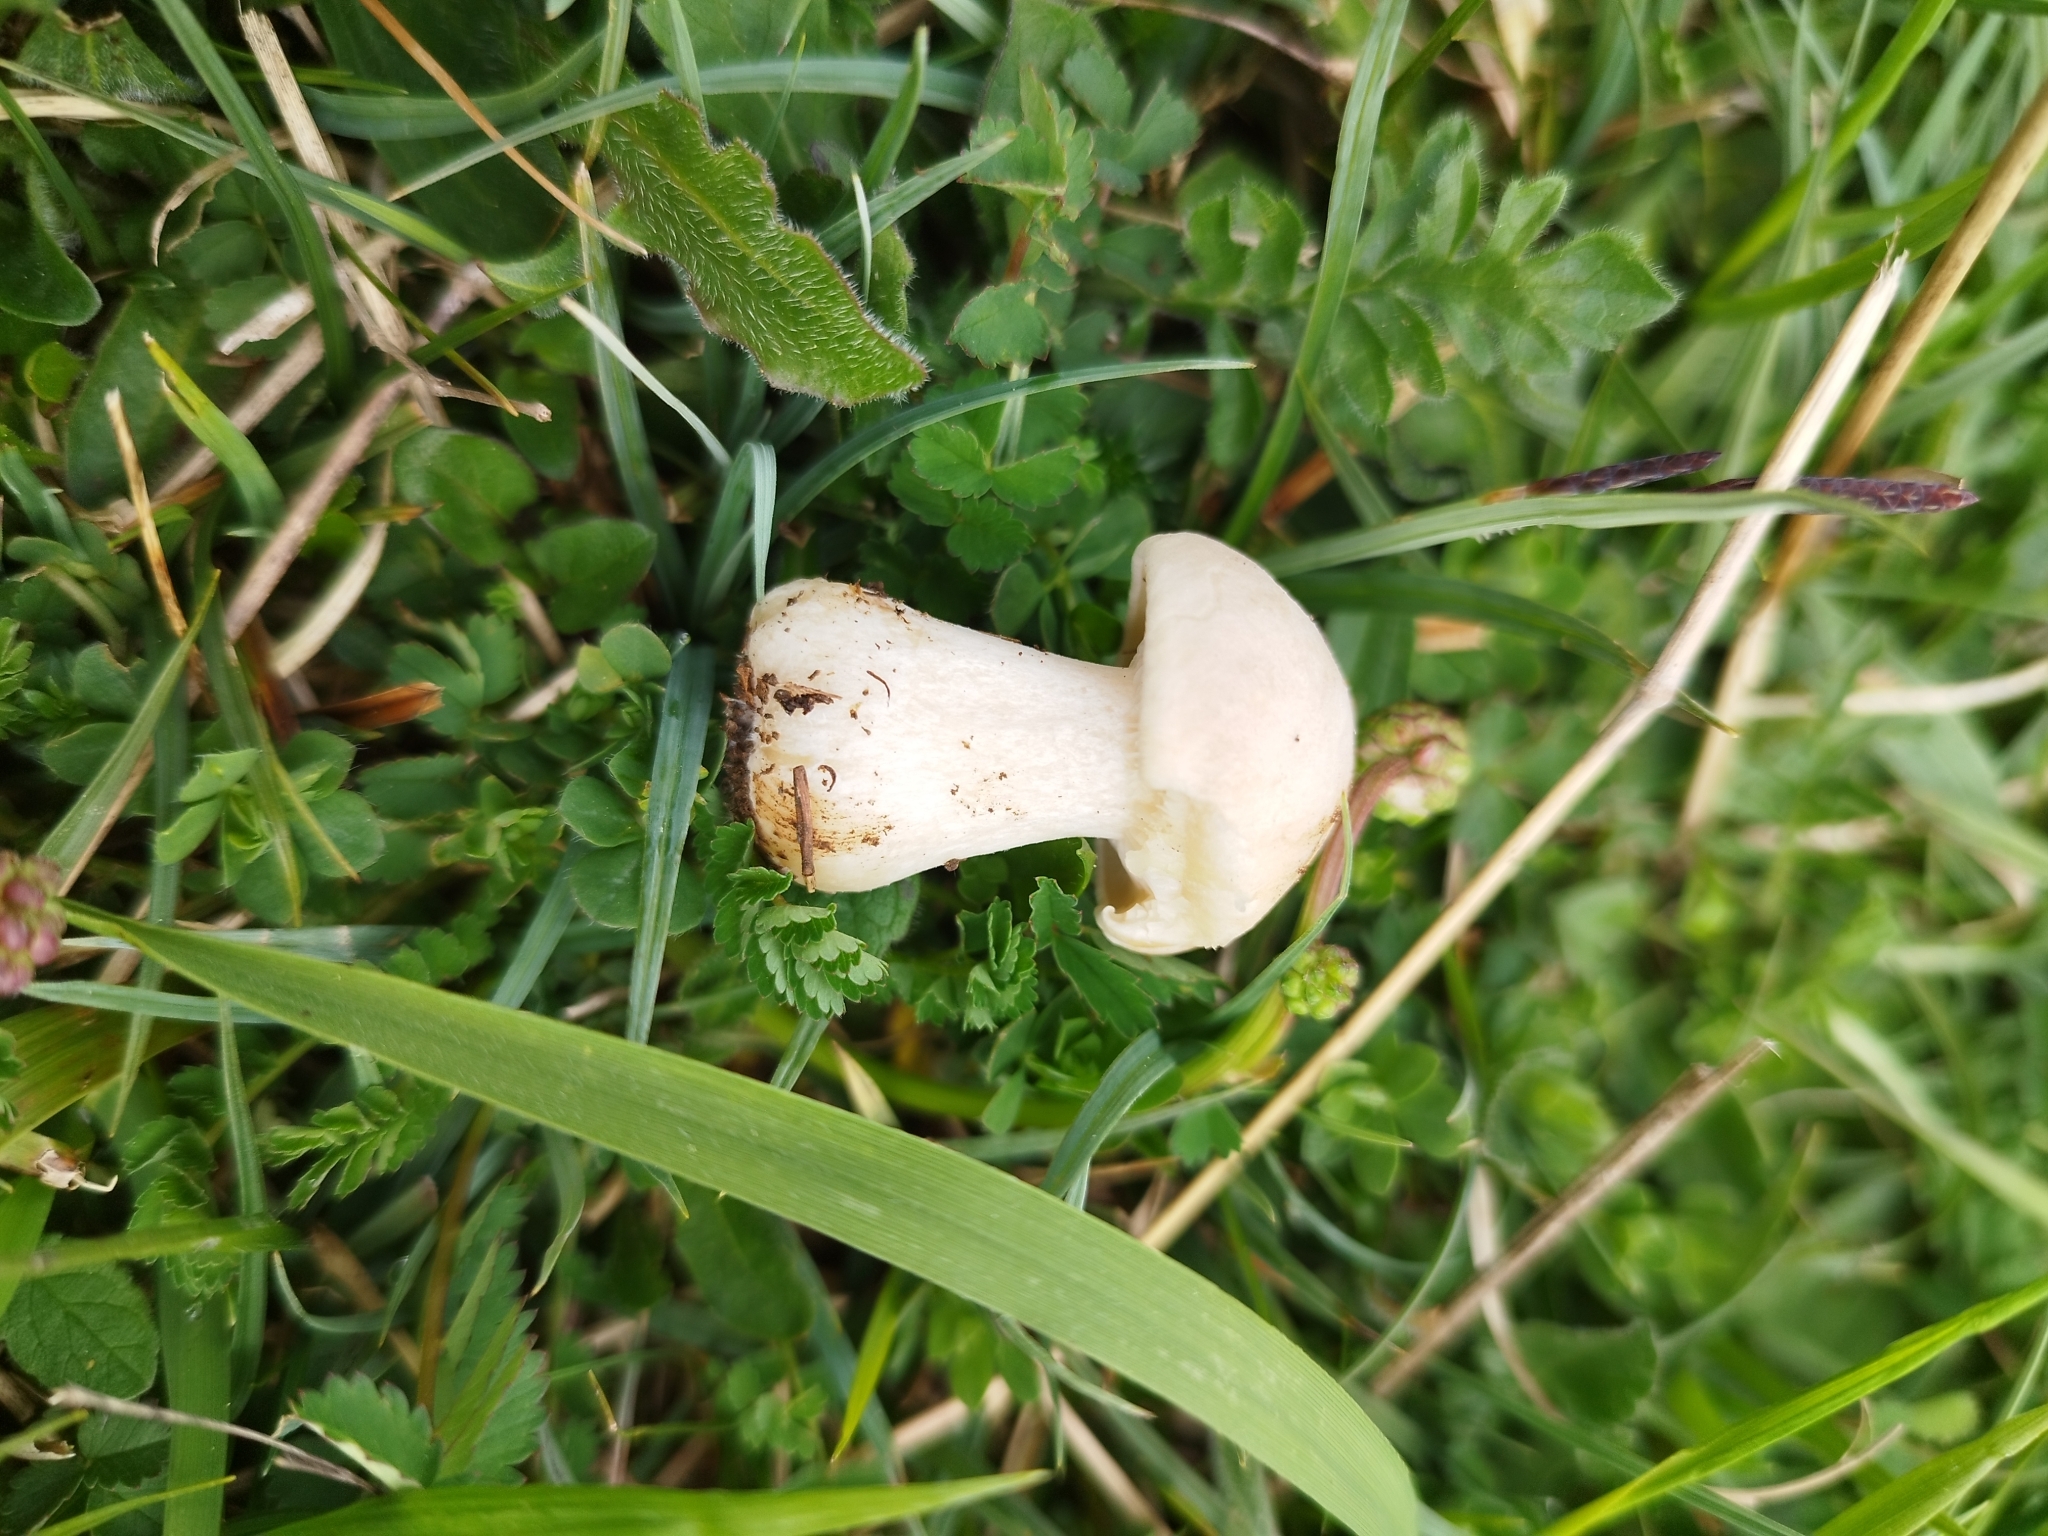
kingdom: Fungi
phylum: Basidiomycota
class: Agaricomycetes
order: Agaricales
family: Lyophyllaceae
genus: Calocybe
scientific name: Calocybe gambosa
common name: St. george's mushroom
